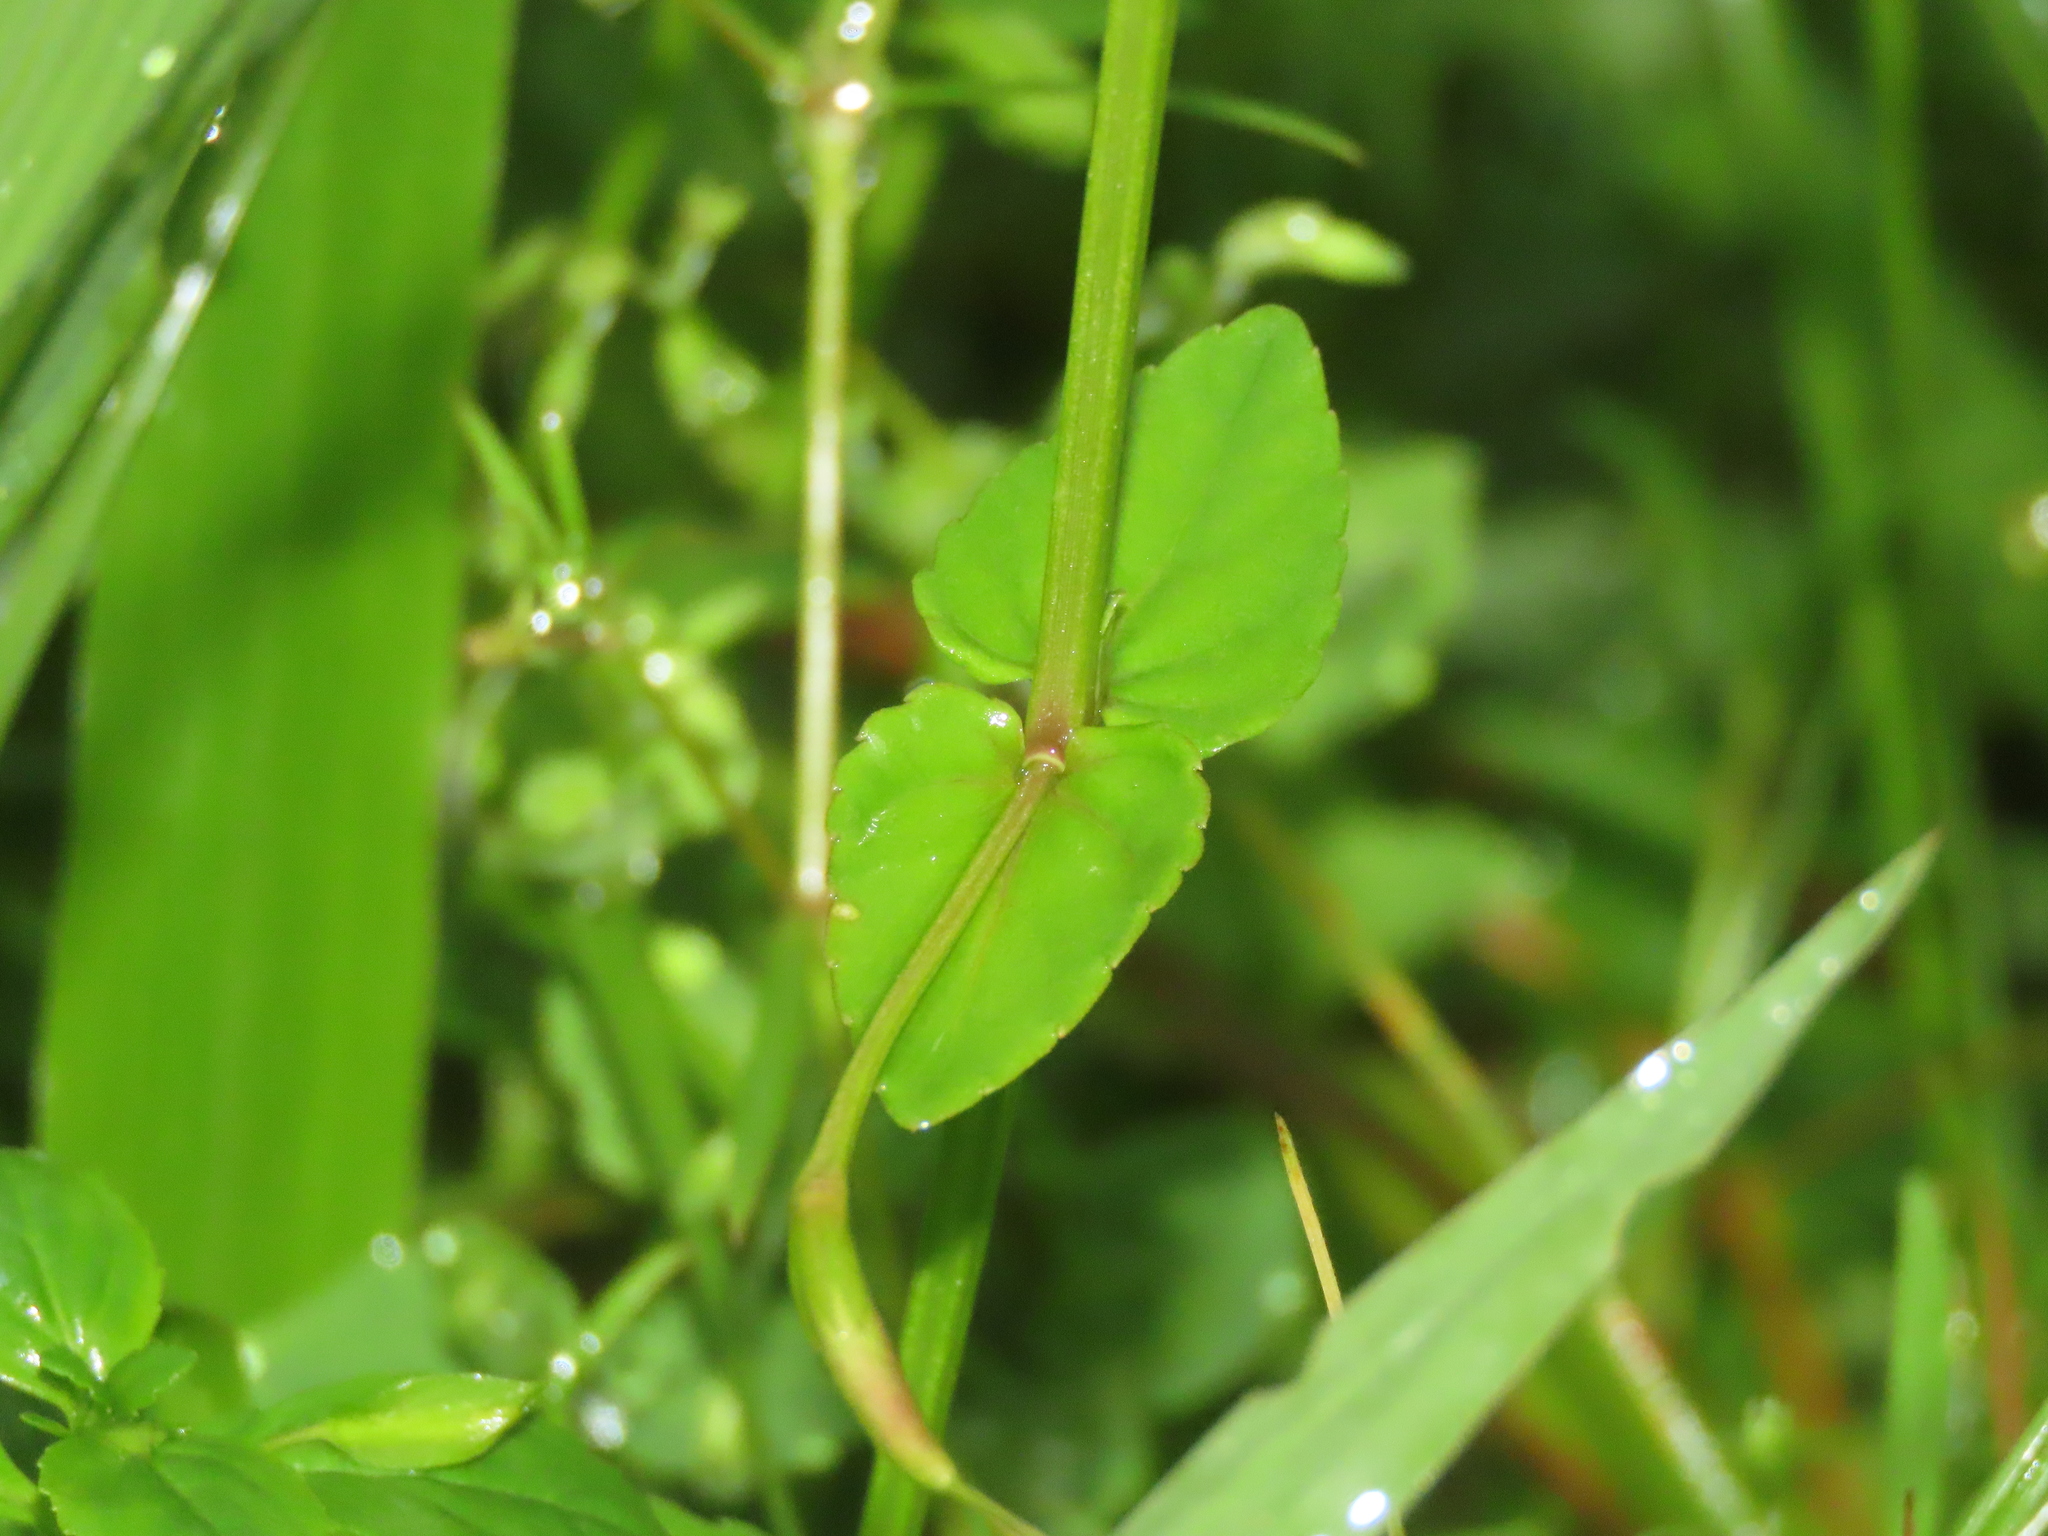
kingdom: Plantae
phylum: Tracheophyta
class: Magnoliopsida
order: Lamiales
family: Linderniaceae
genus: Torenia
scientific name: Torenia anagallis
